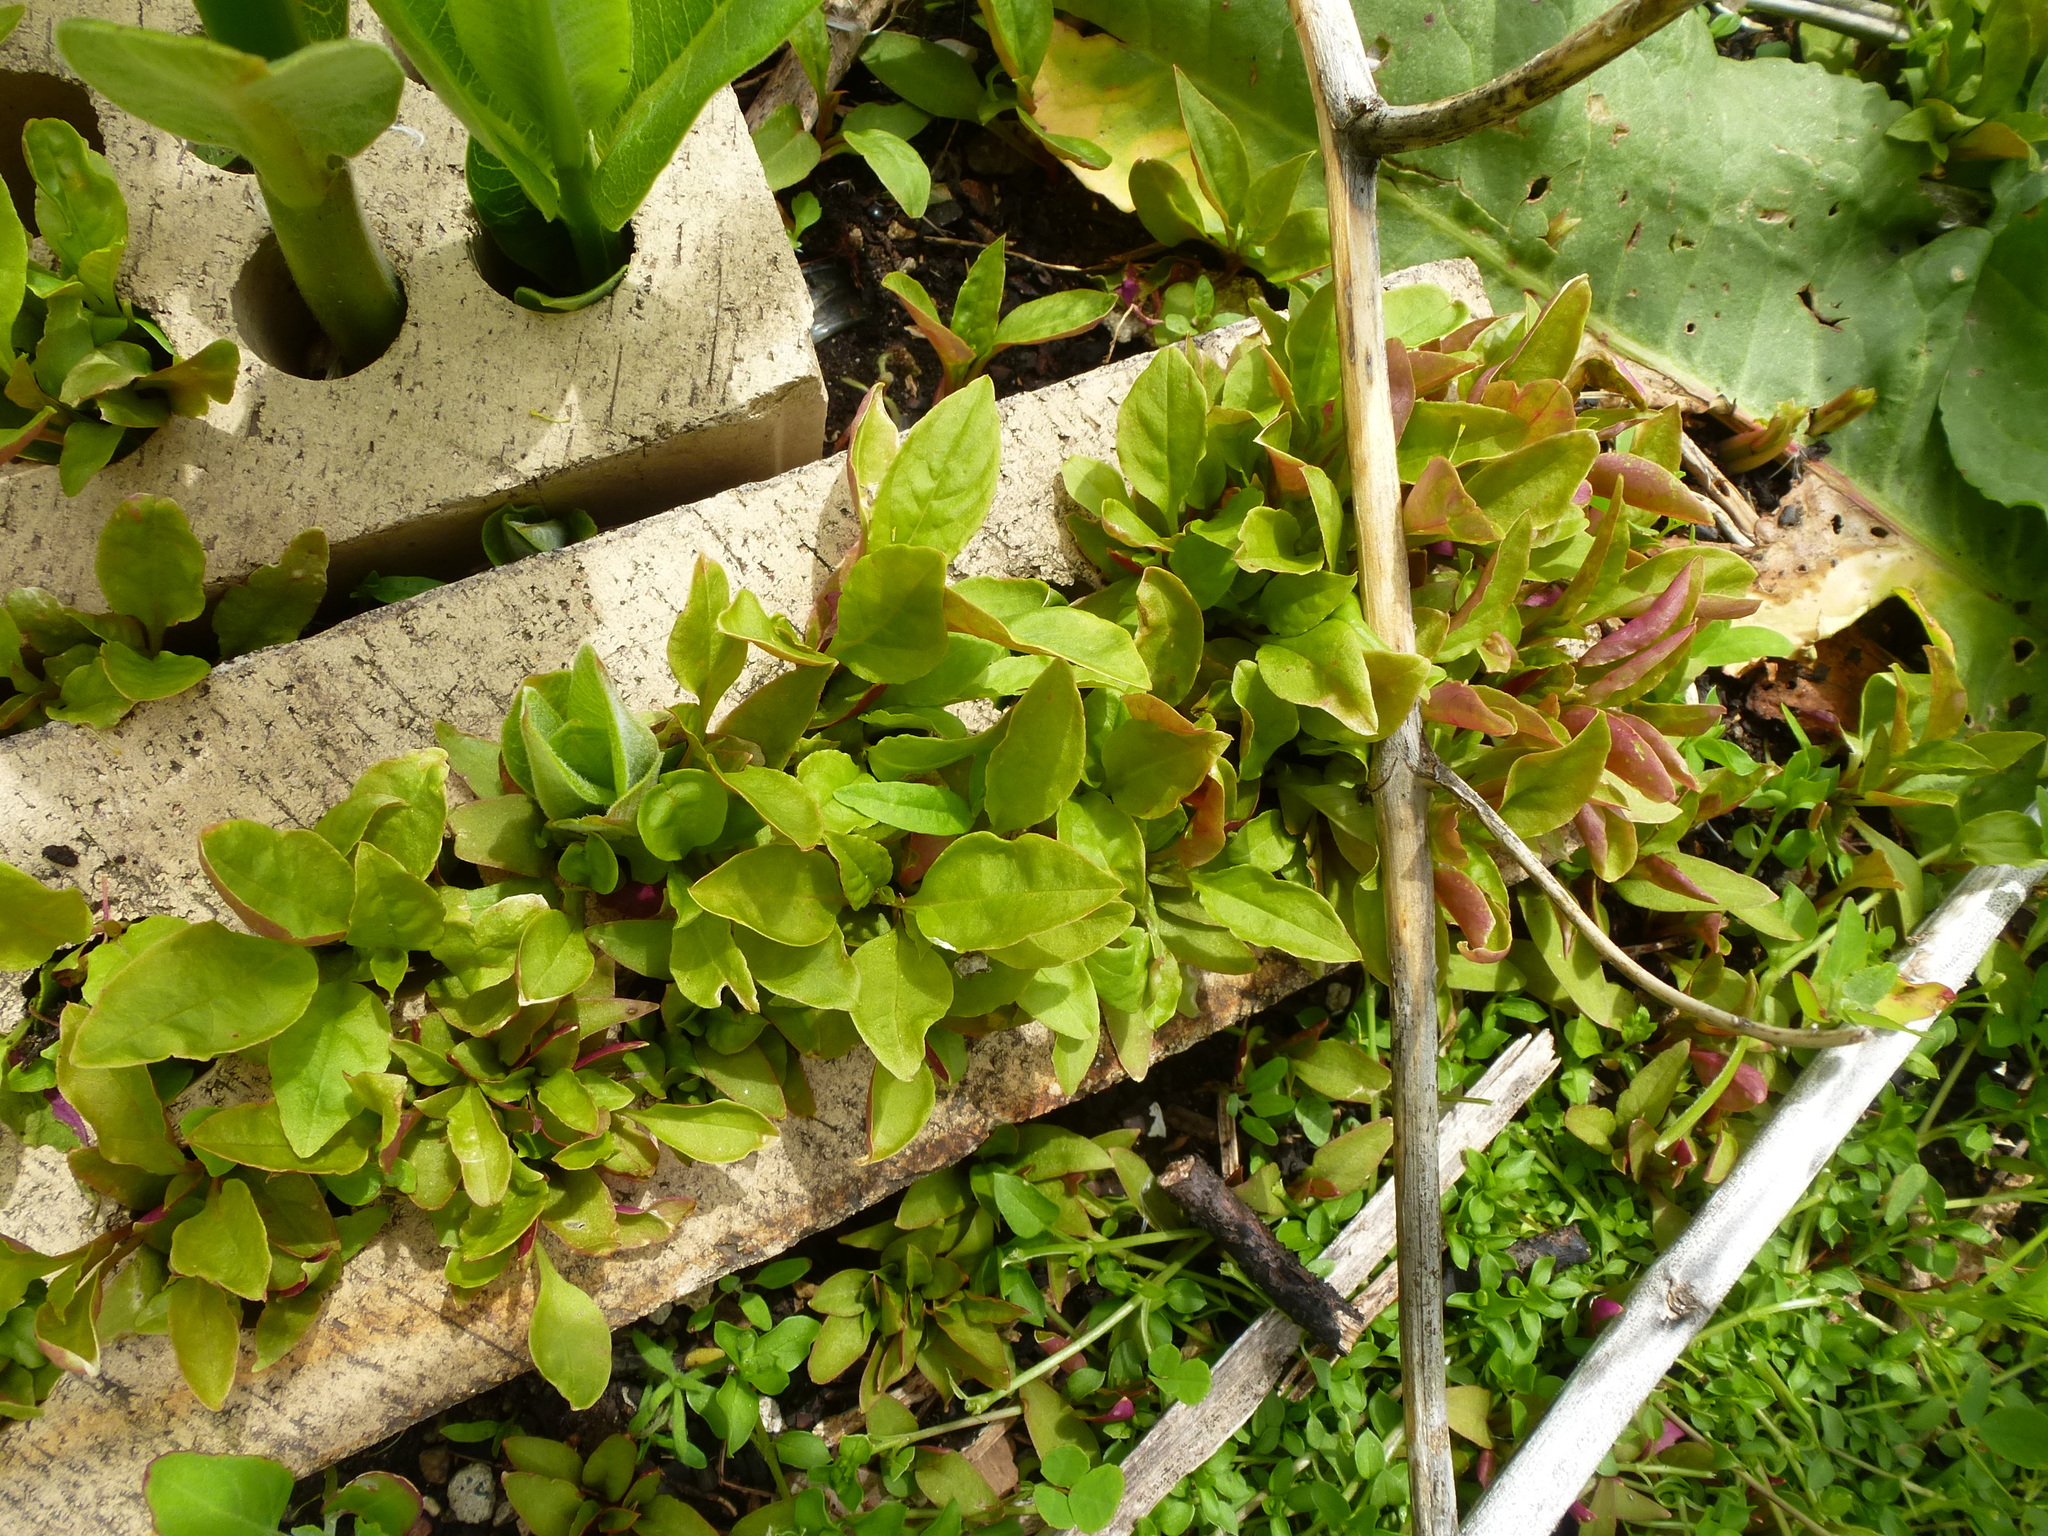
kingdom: Plantae
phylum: Tracheophyta
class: Magnoliopsida
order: Caryophyllales
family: Phytolaccaceae
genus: Phytolacca
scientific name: Phytolacca americana
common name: American pokeweed
